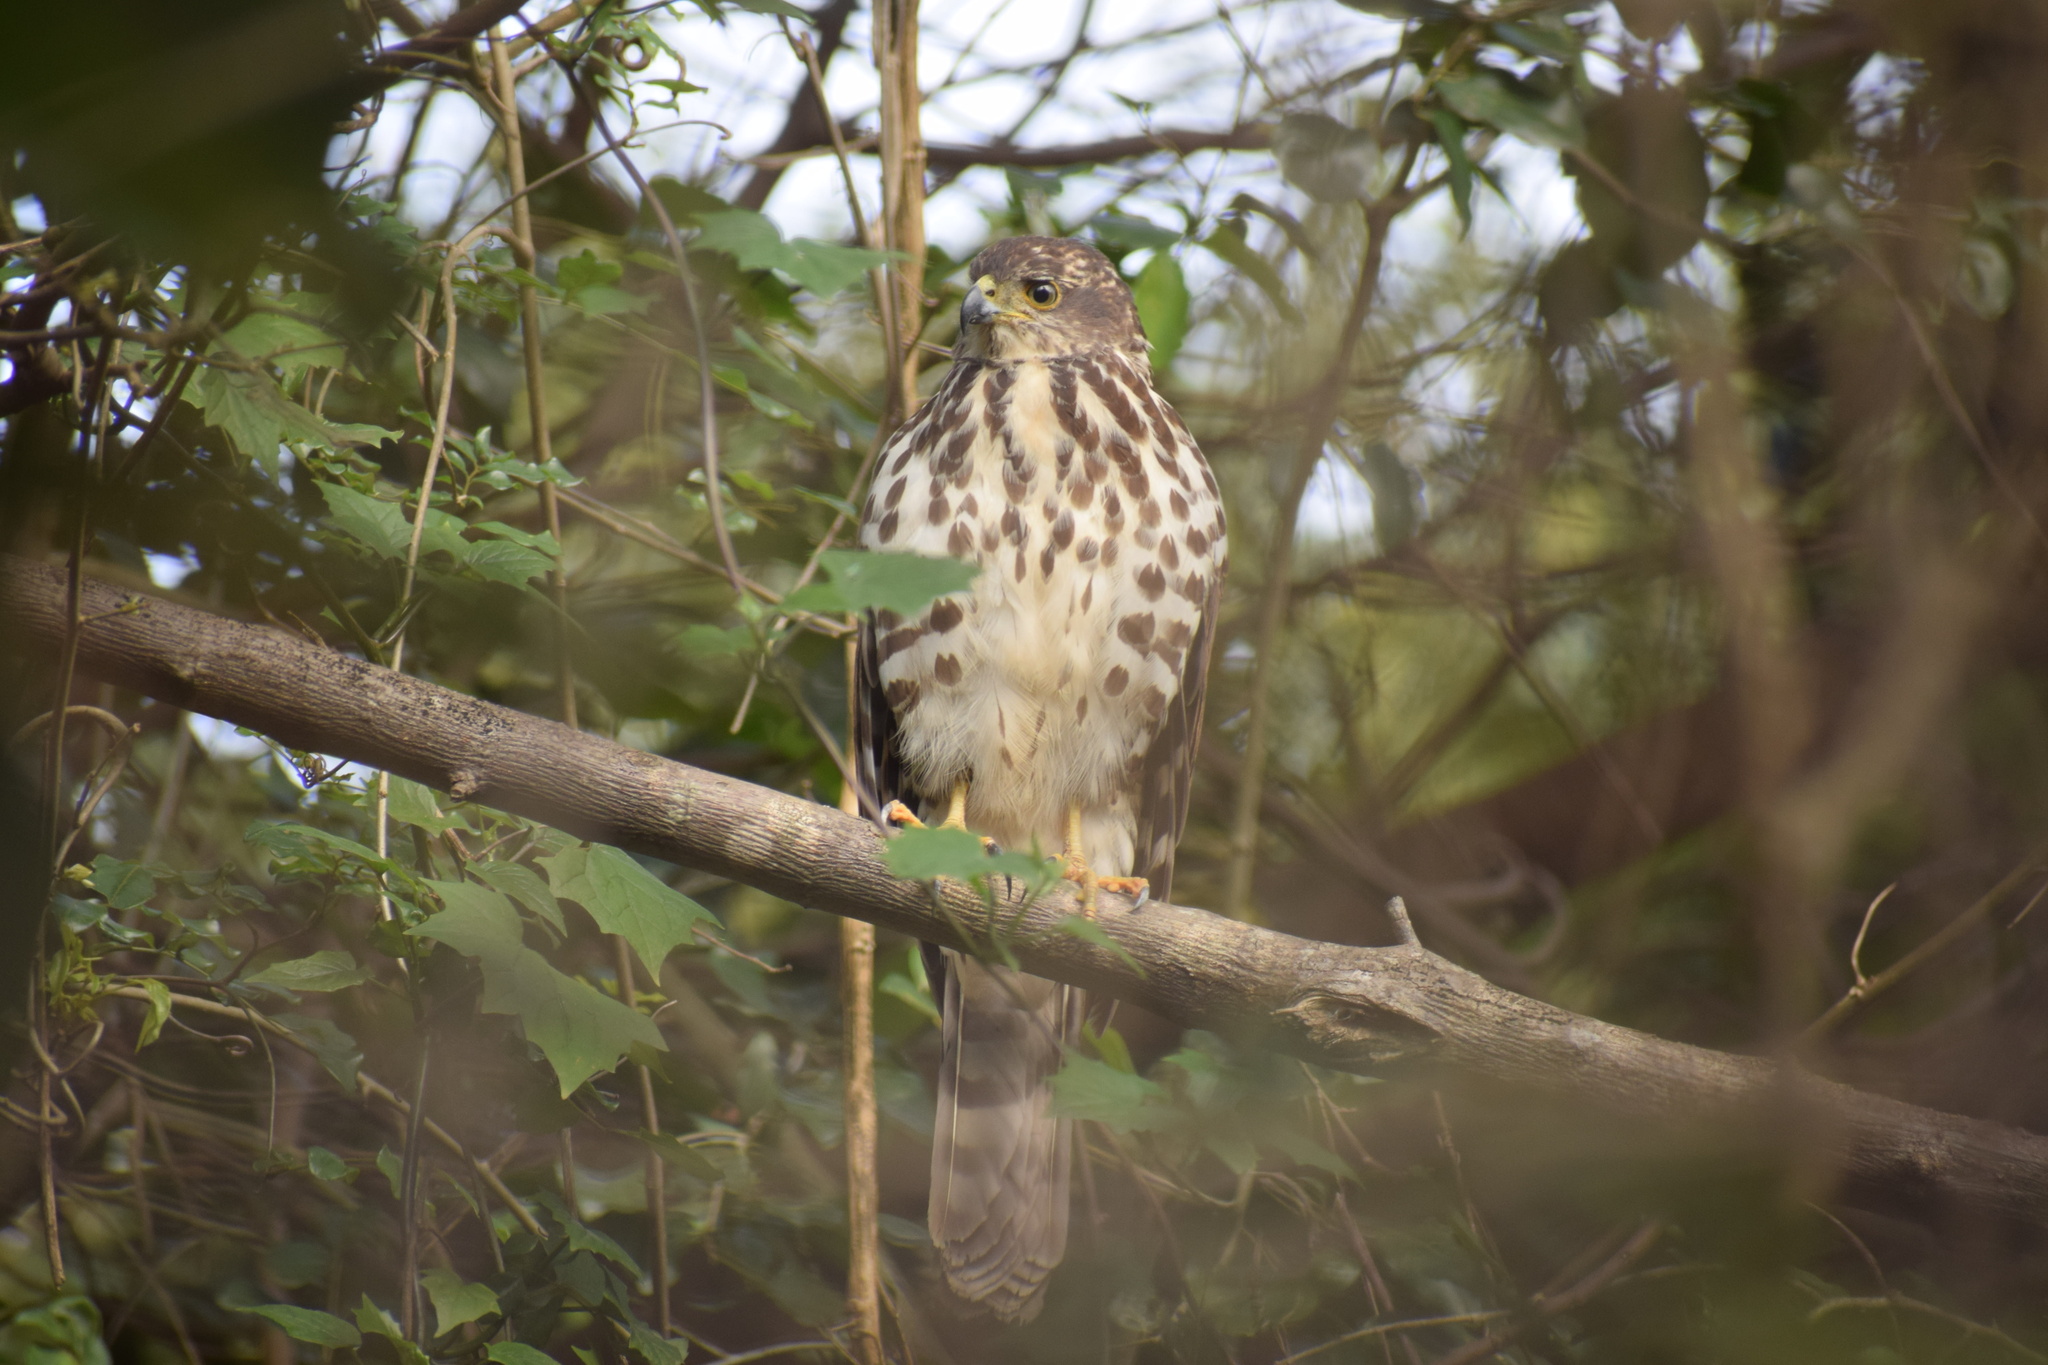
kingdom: Animalia
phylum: Chordata
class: Aves
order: Accipitriformes
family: Accipitridae
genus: Accipiter
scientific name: Accipiter tachiro
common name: African goshawk
